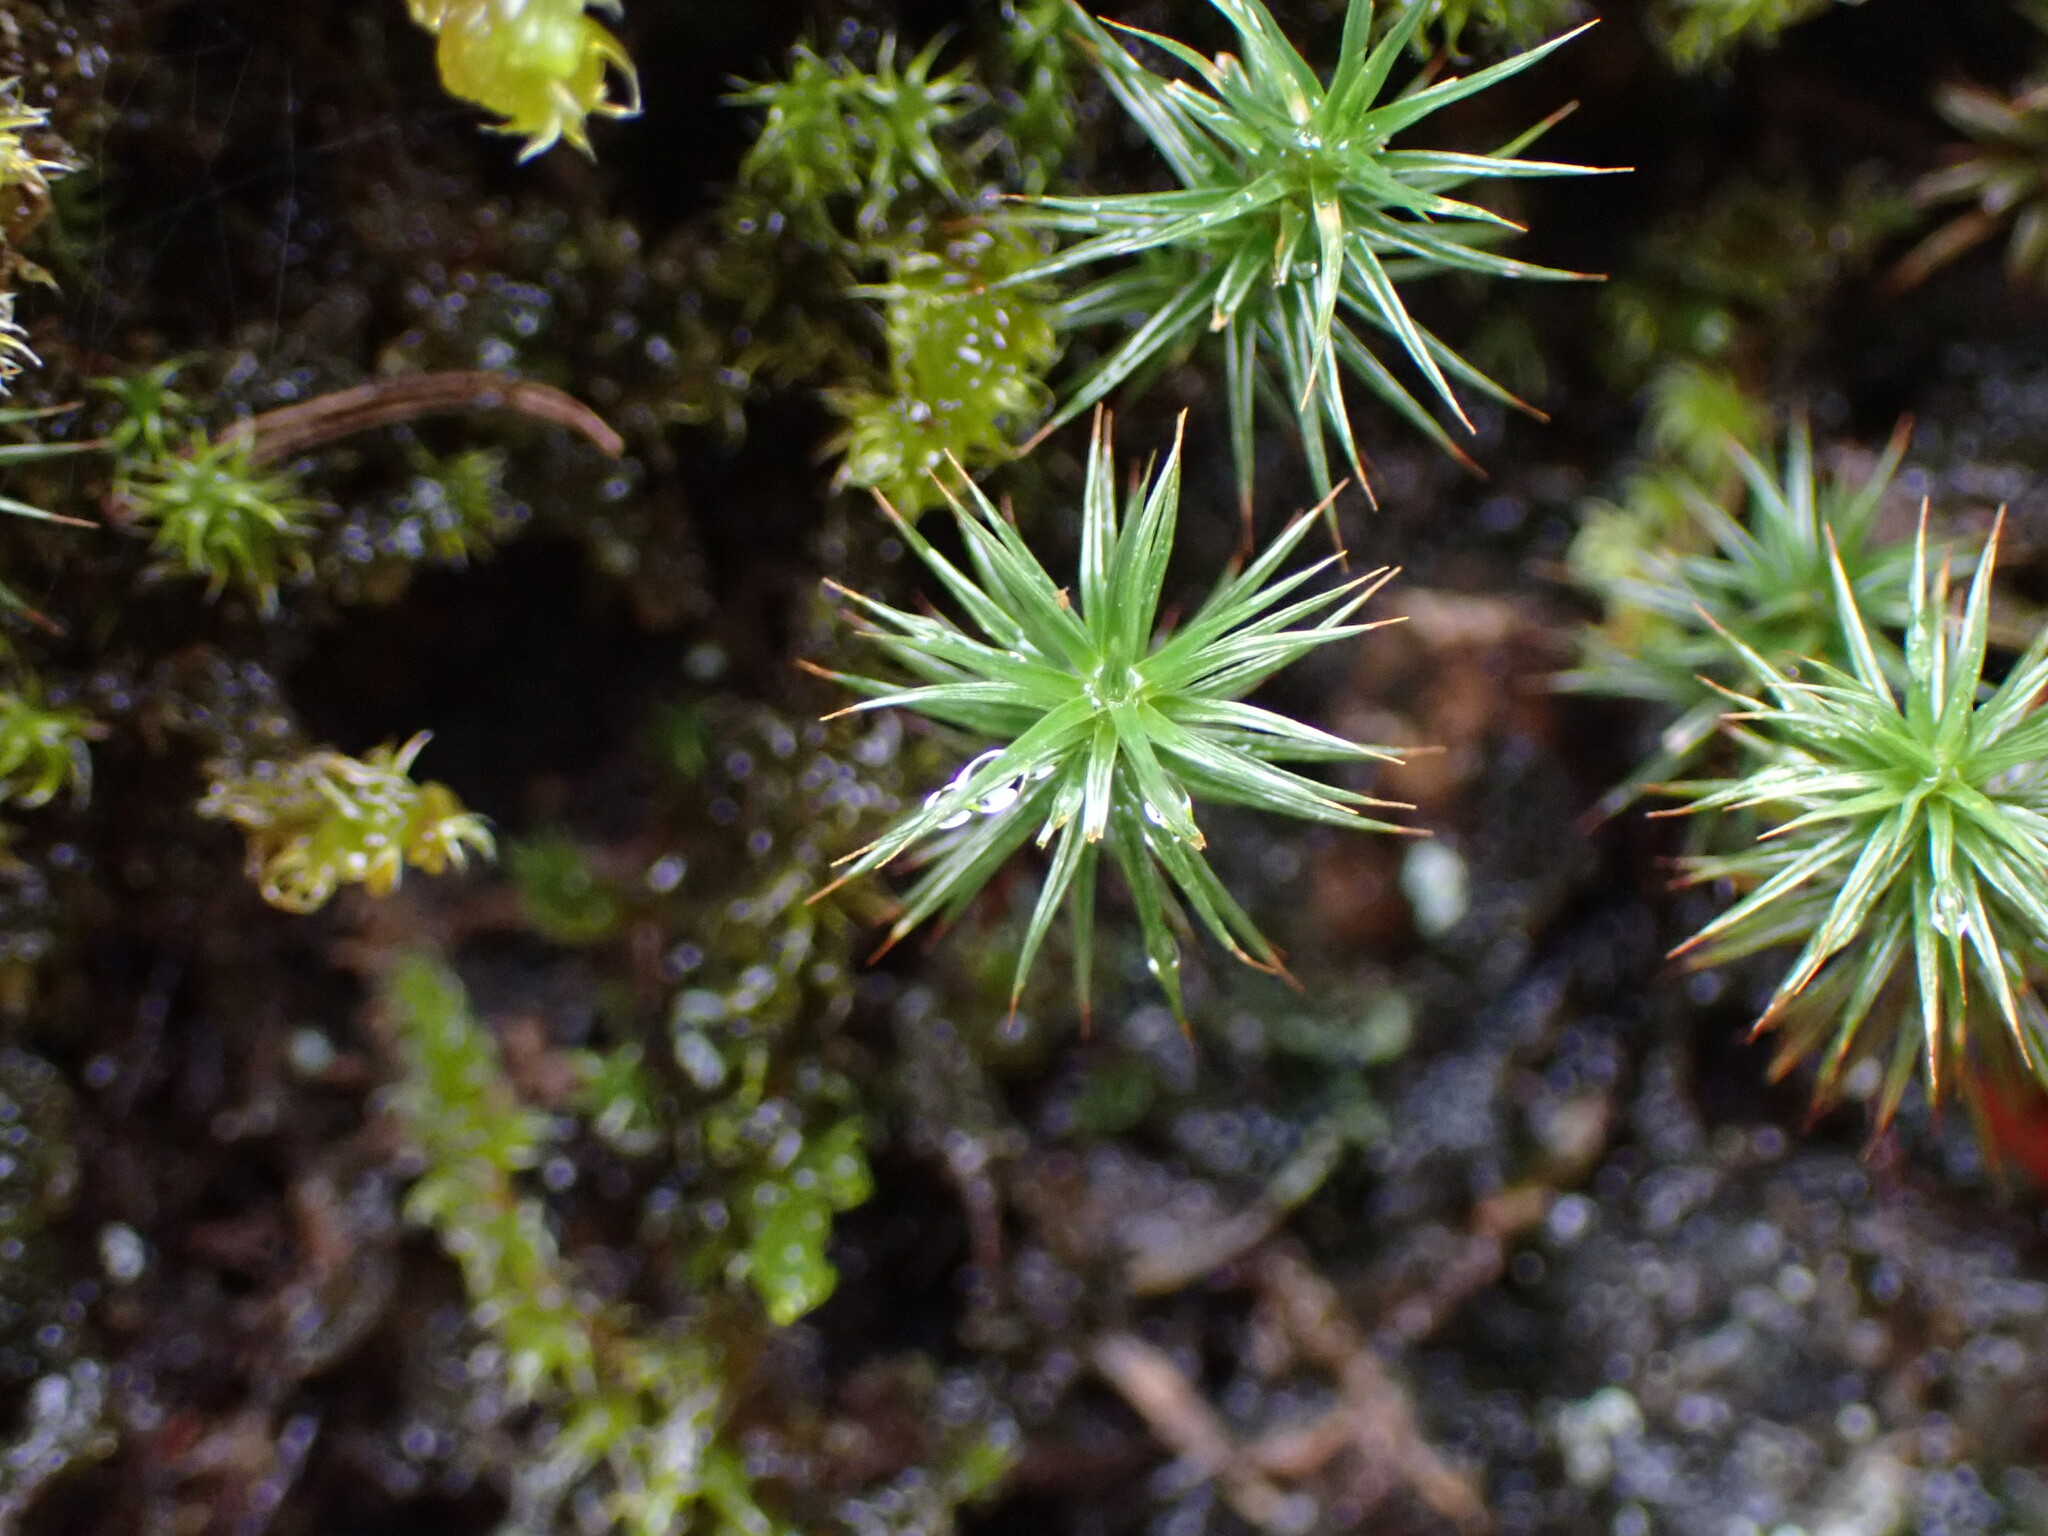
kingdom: Plantae
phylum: Bryophyta
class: Polytrichopsida
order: Polytrichales
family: Polytrichaceae
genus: Polytrichum
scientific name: Polytrichum juniperinum
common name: Juniper haircap moss
